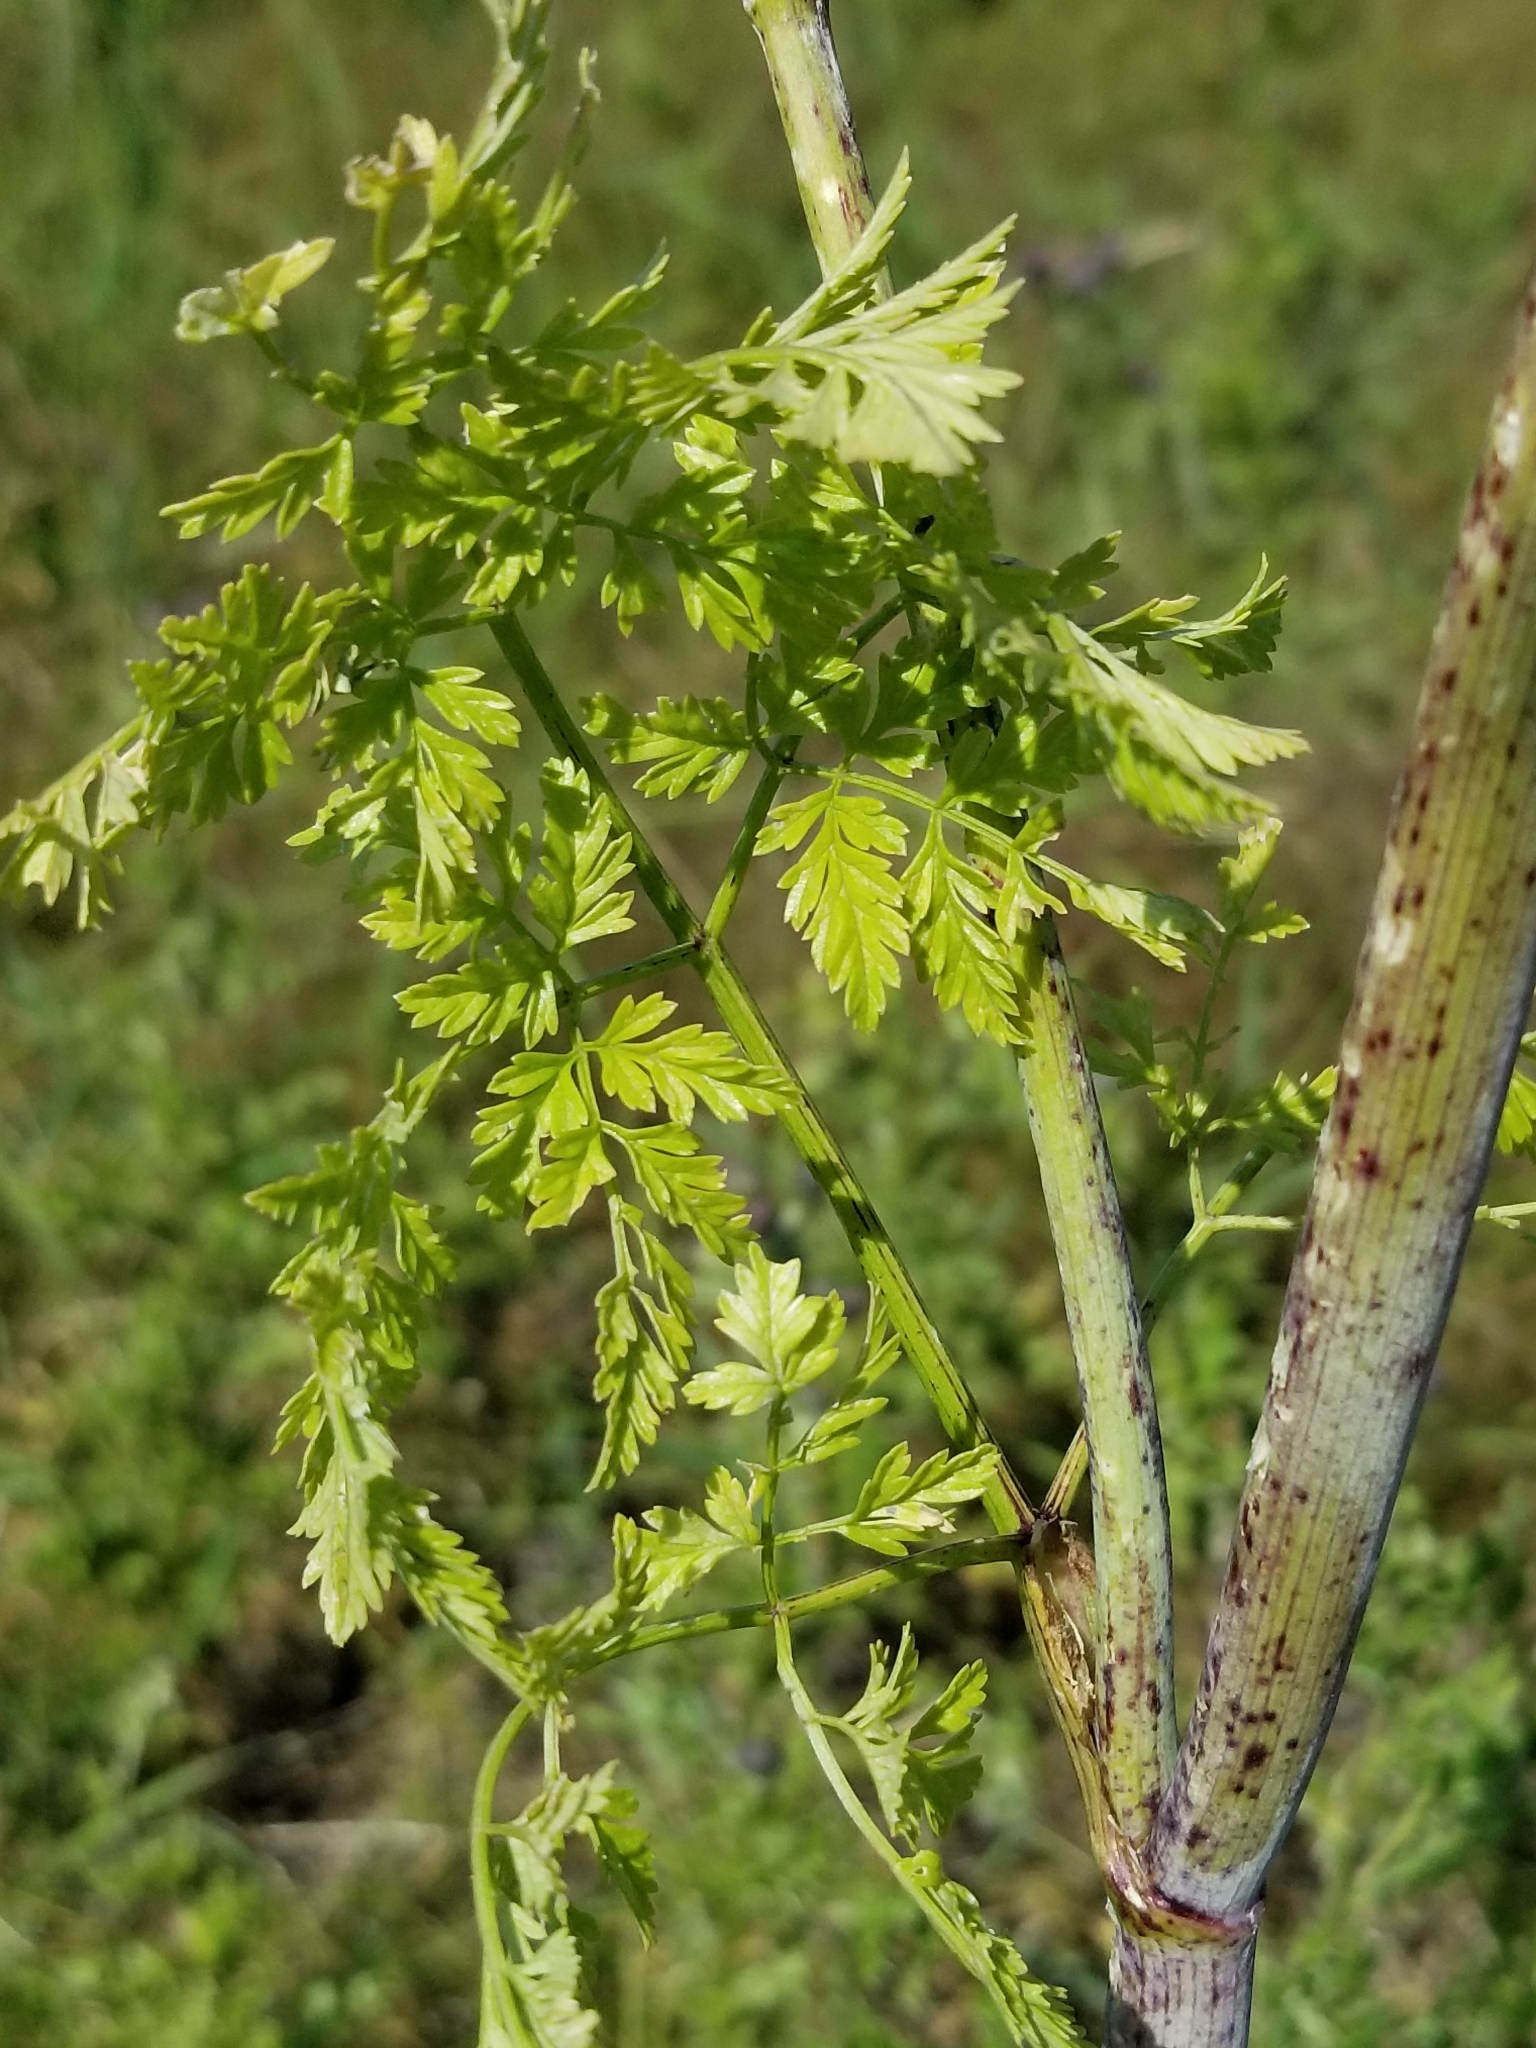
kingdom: Plantae
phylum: Tracheophyta
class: Magnoliopsida
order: Apiales
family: Apiaceae
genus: Conium
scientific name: Conium maculatum
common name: Hemlock
